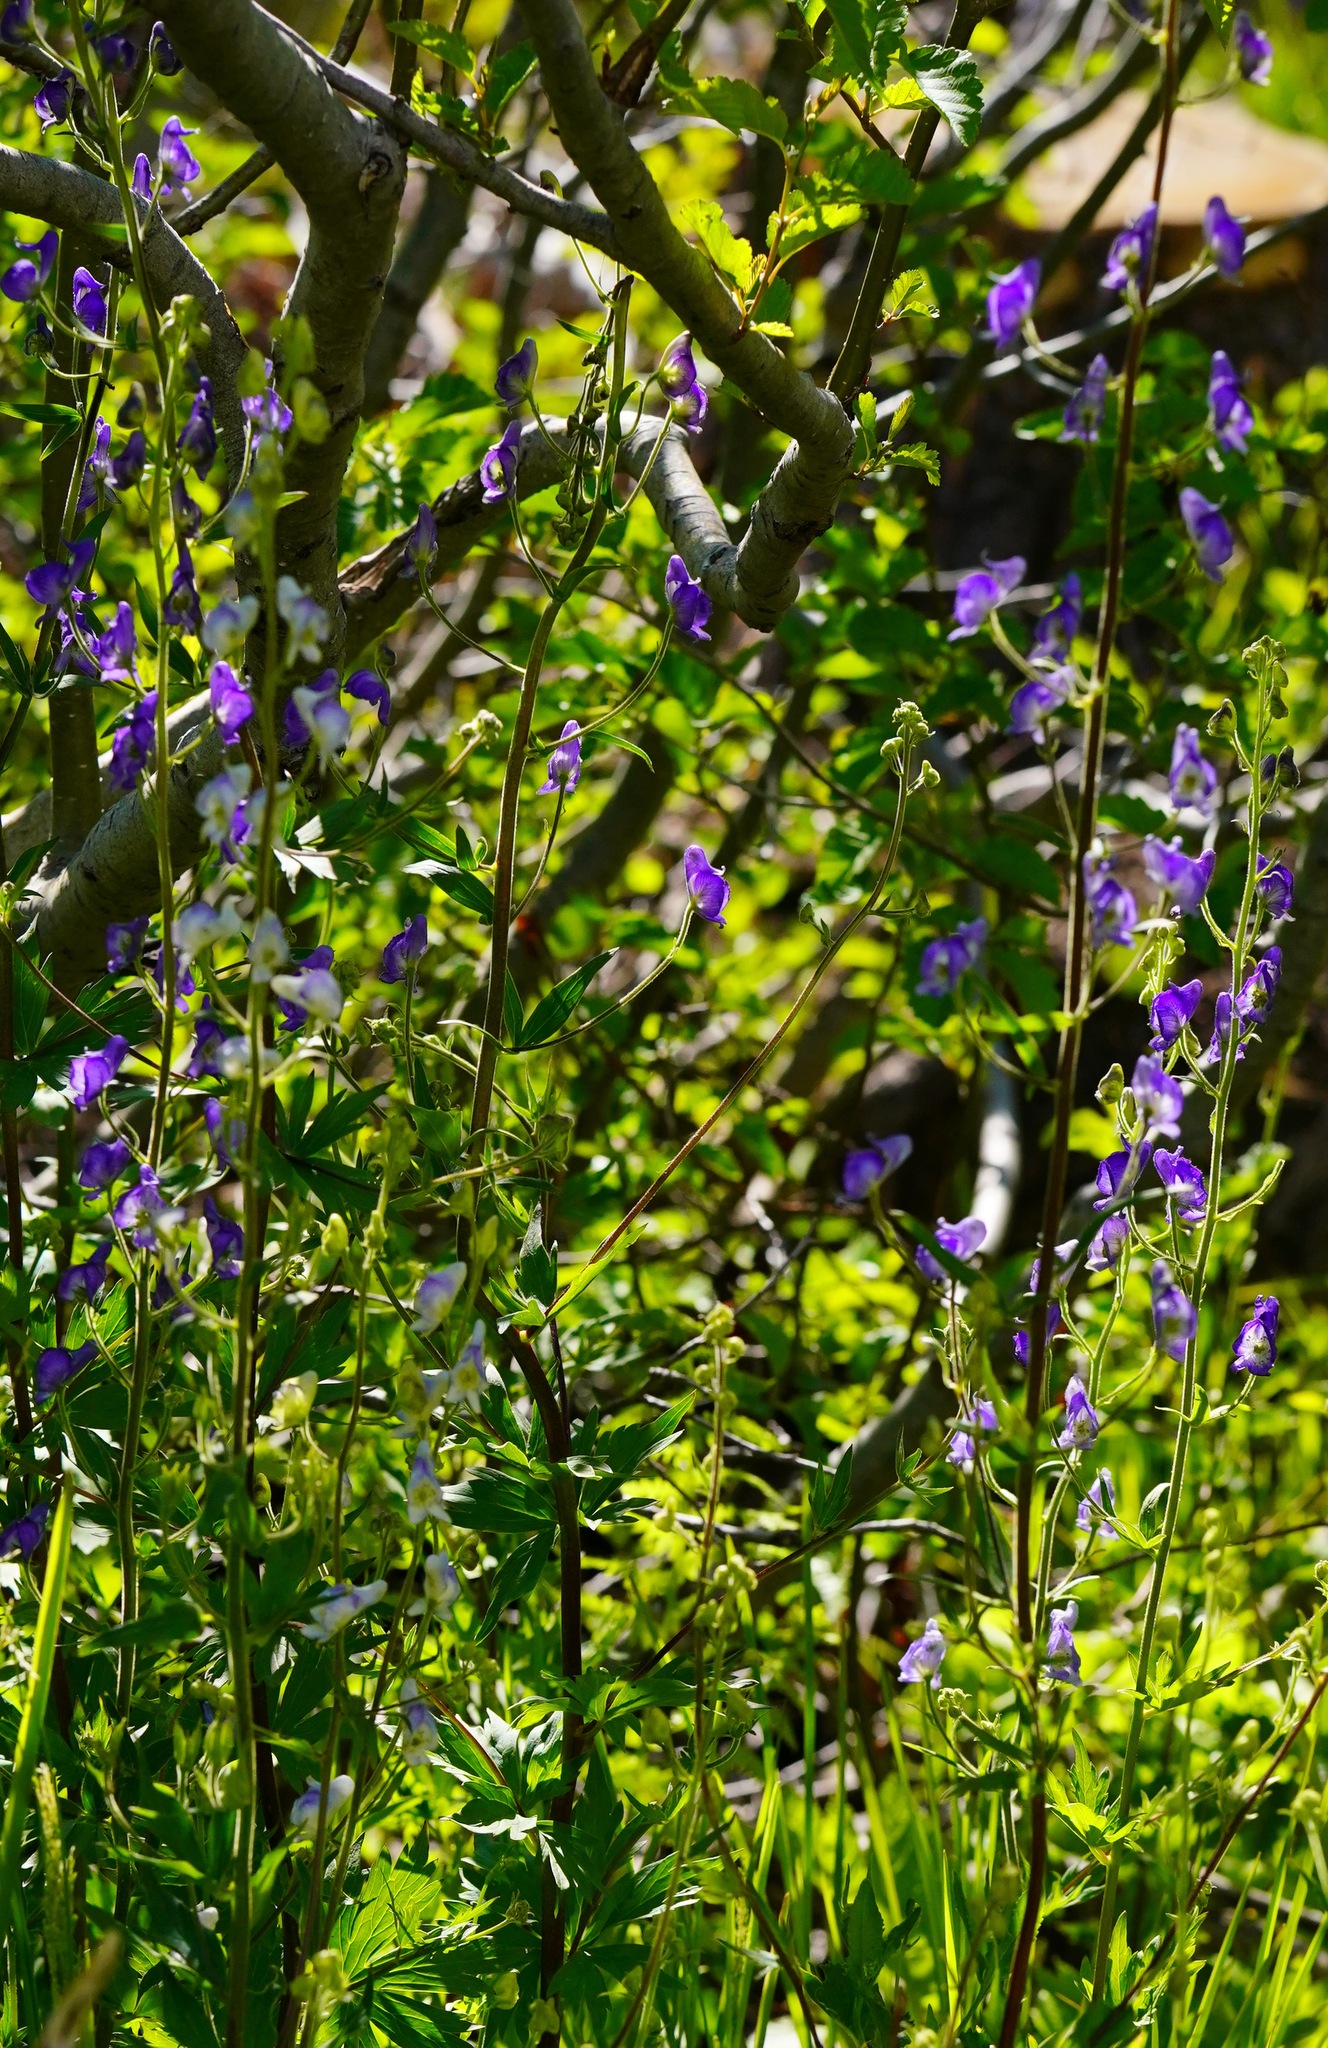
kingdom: Plantae
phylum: Tracheophyta
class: Magnoliopsida
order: Ranunculales
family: Ranunculaceae
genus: Aconitum
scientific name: Aconitum columbianum
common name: Columbia aconite
